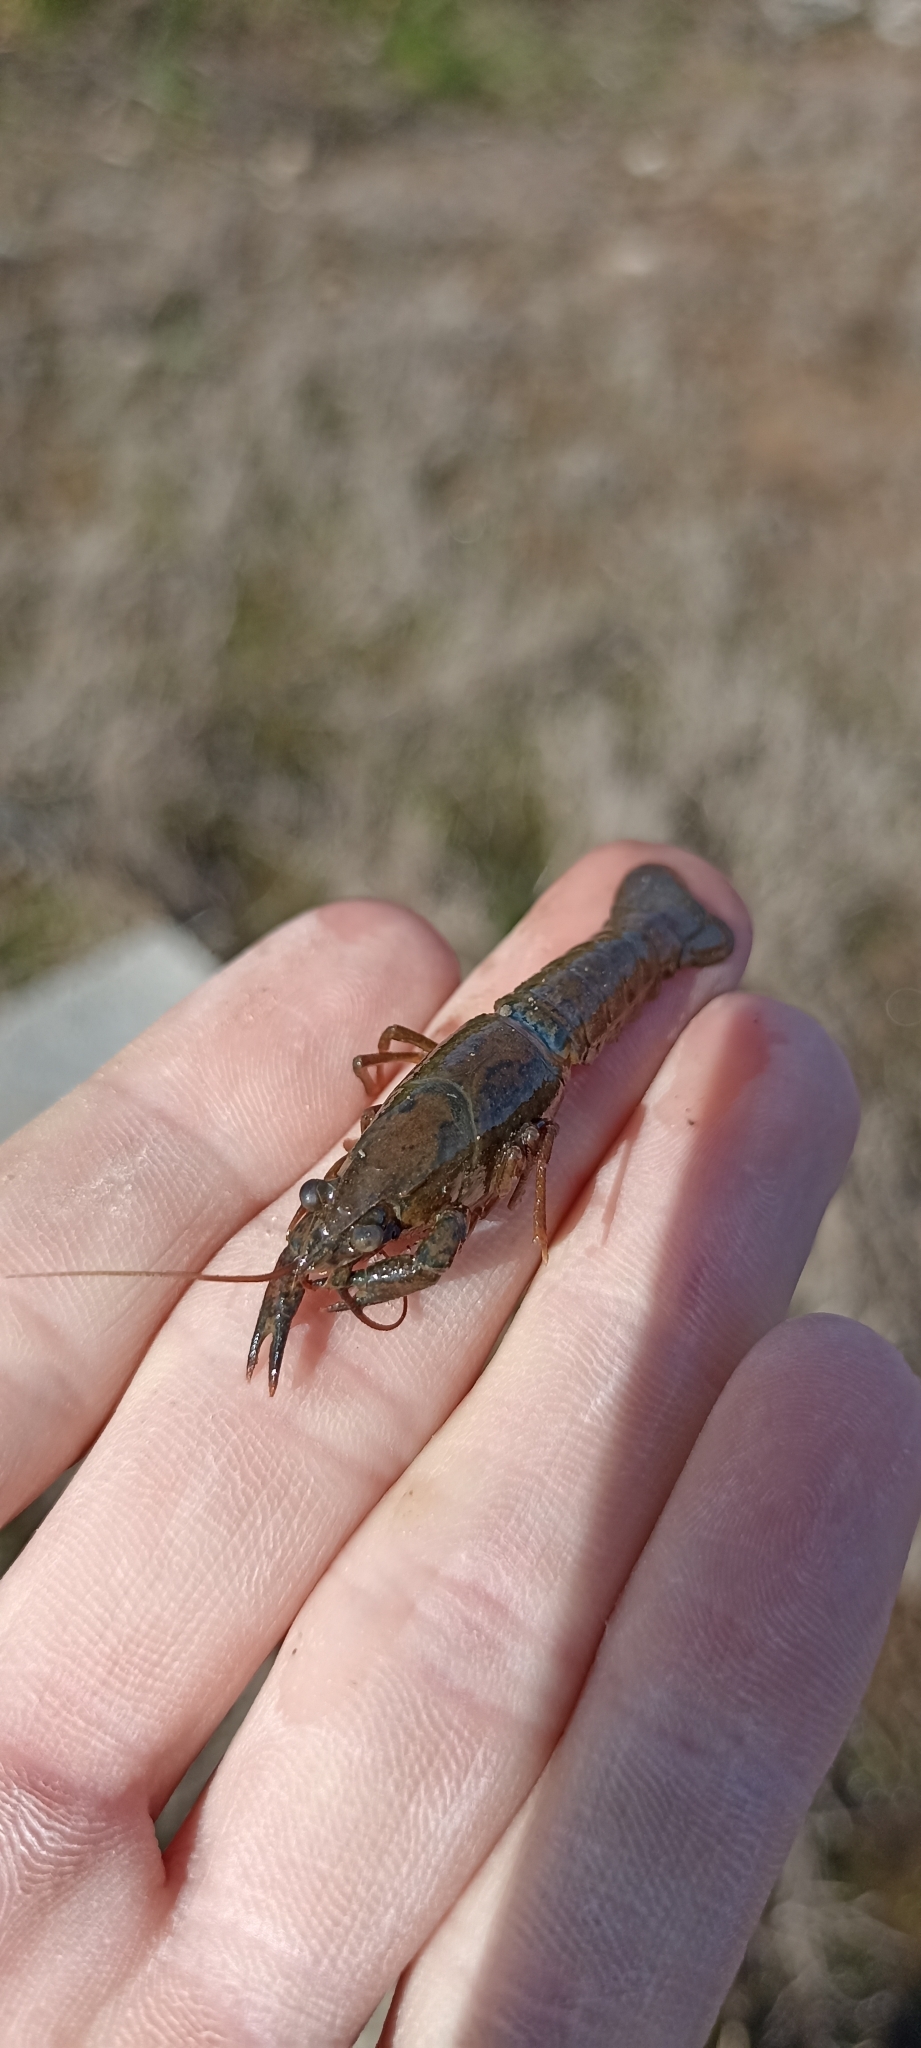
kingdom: Animalia
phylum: Arthropoda
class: Malacostraca
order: Decapoda
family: Cambaridae
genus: Faxonius
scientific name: Faxonius limosus
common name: American crayfish
